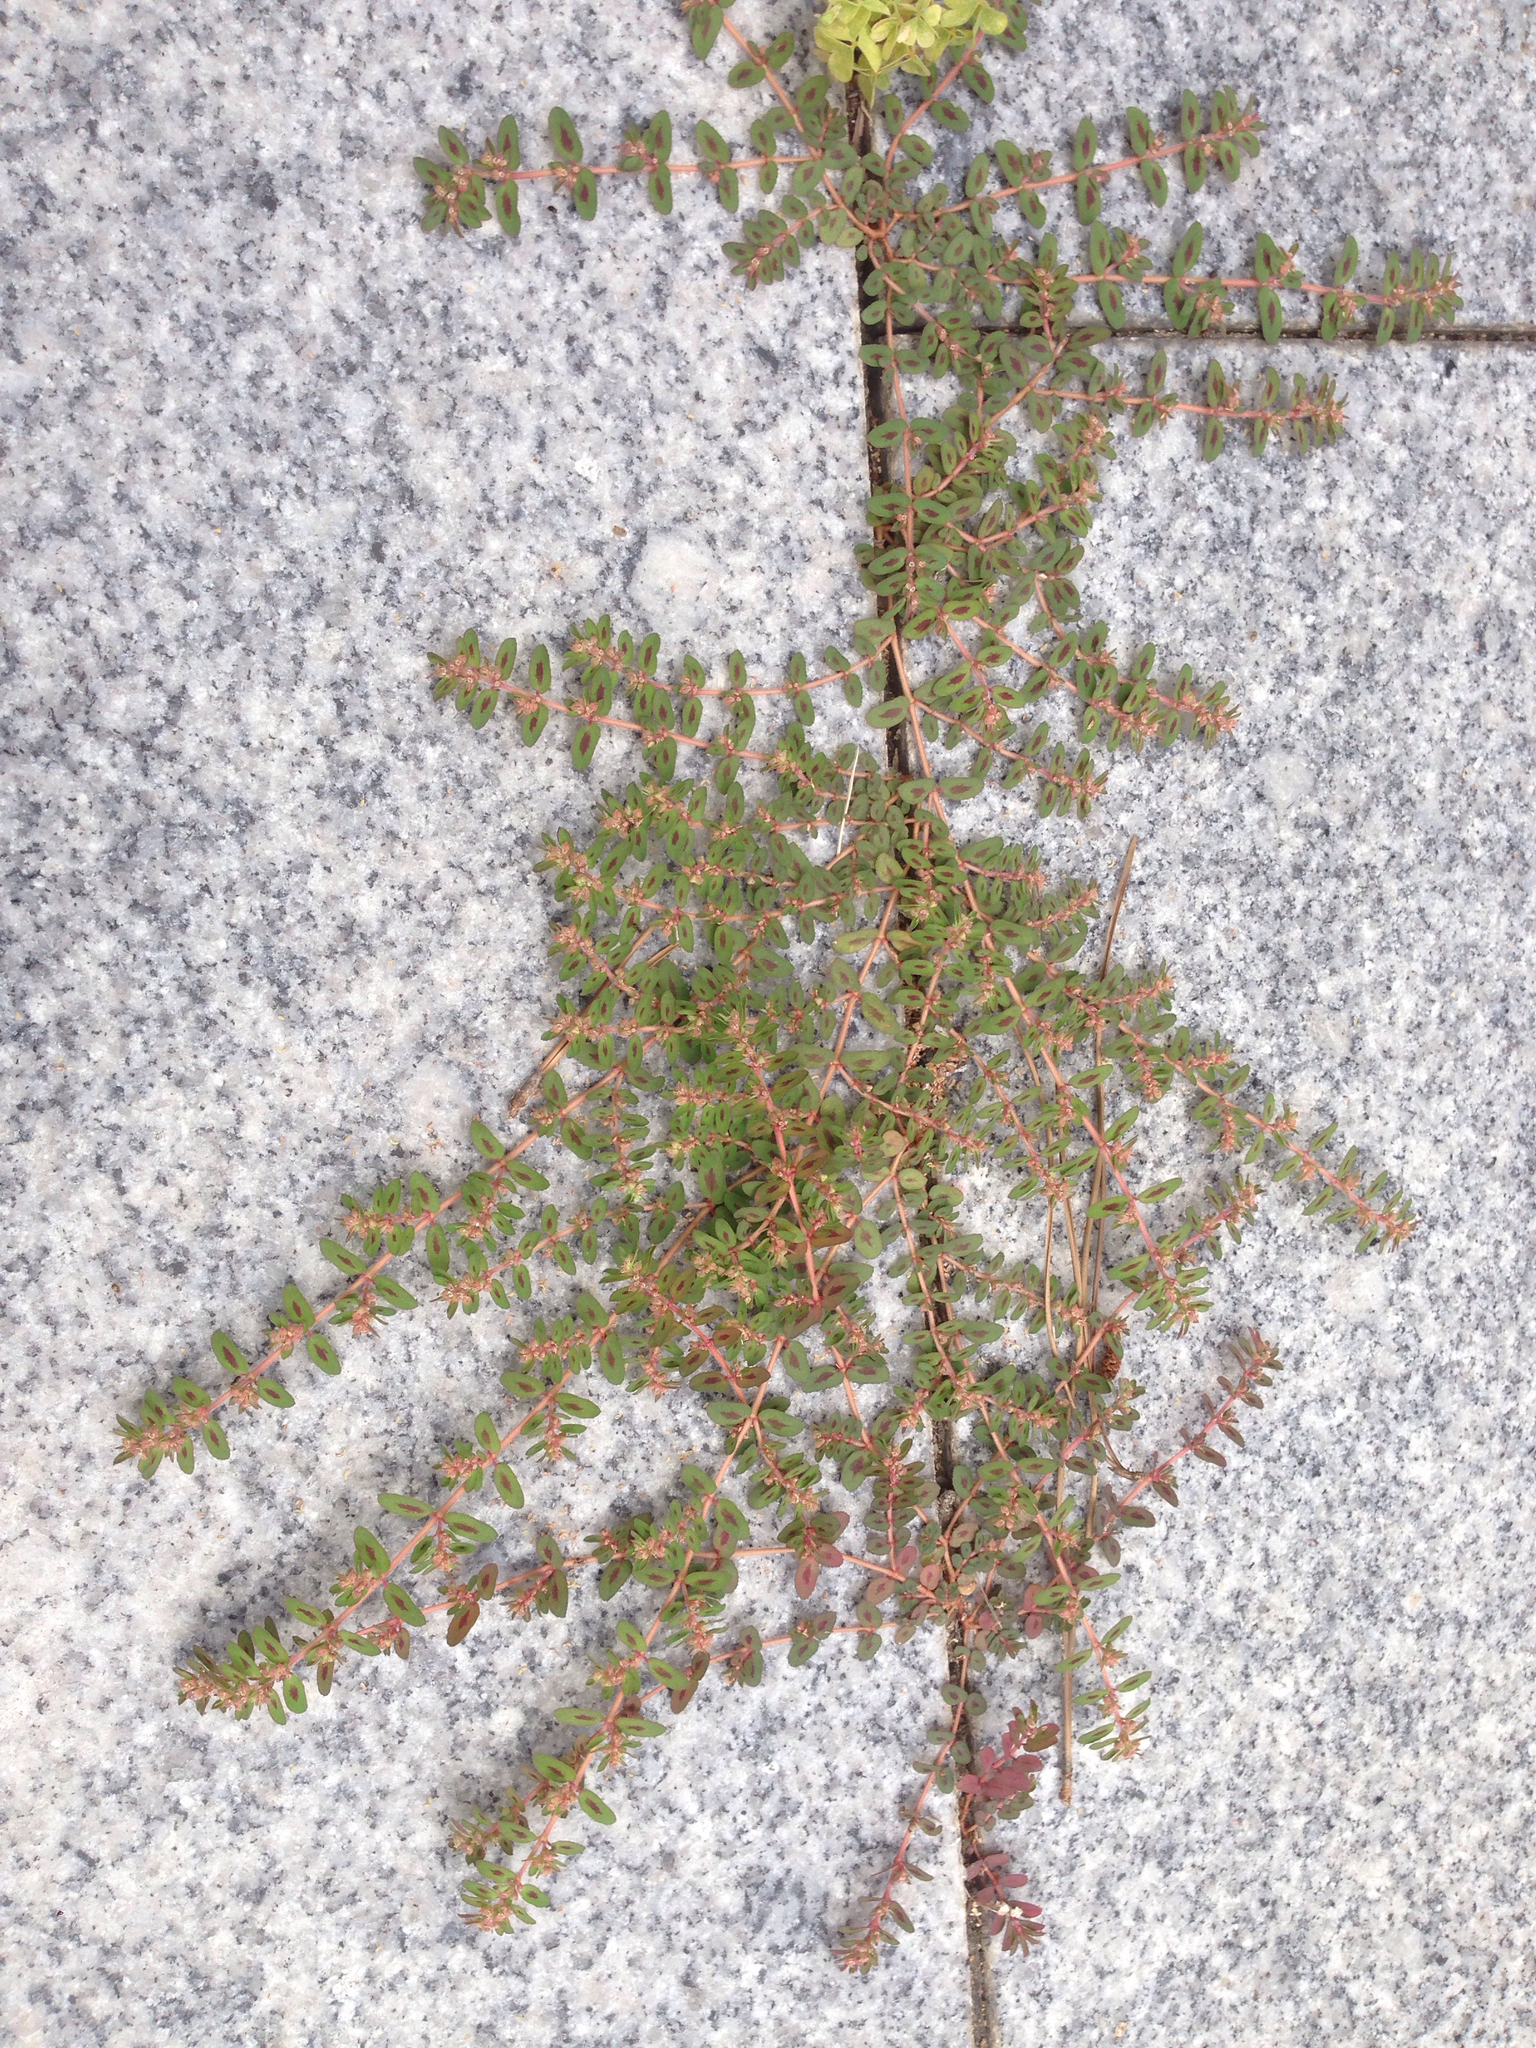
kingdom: Plantae
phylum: Tracheophyta
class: Magnoliopsida
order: Malpighiales
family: Euphorbiaceae
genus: Euphorbia
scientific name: Euphorbia maculata
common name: Spotted spurge
